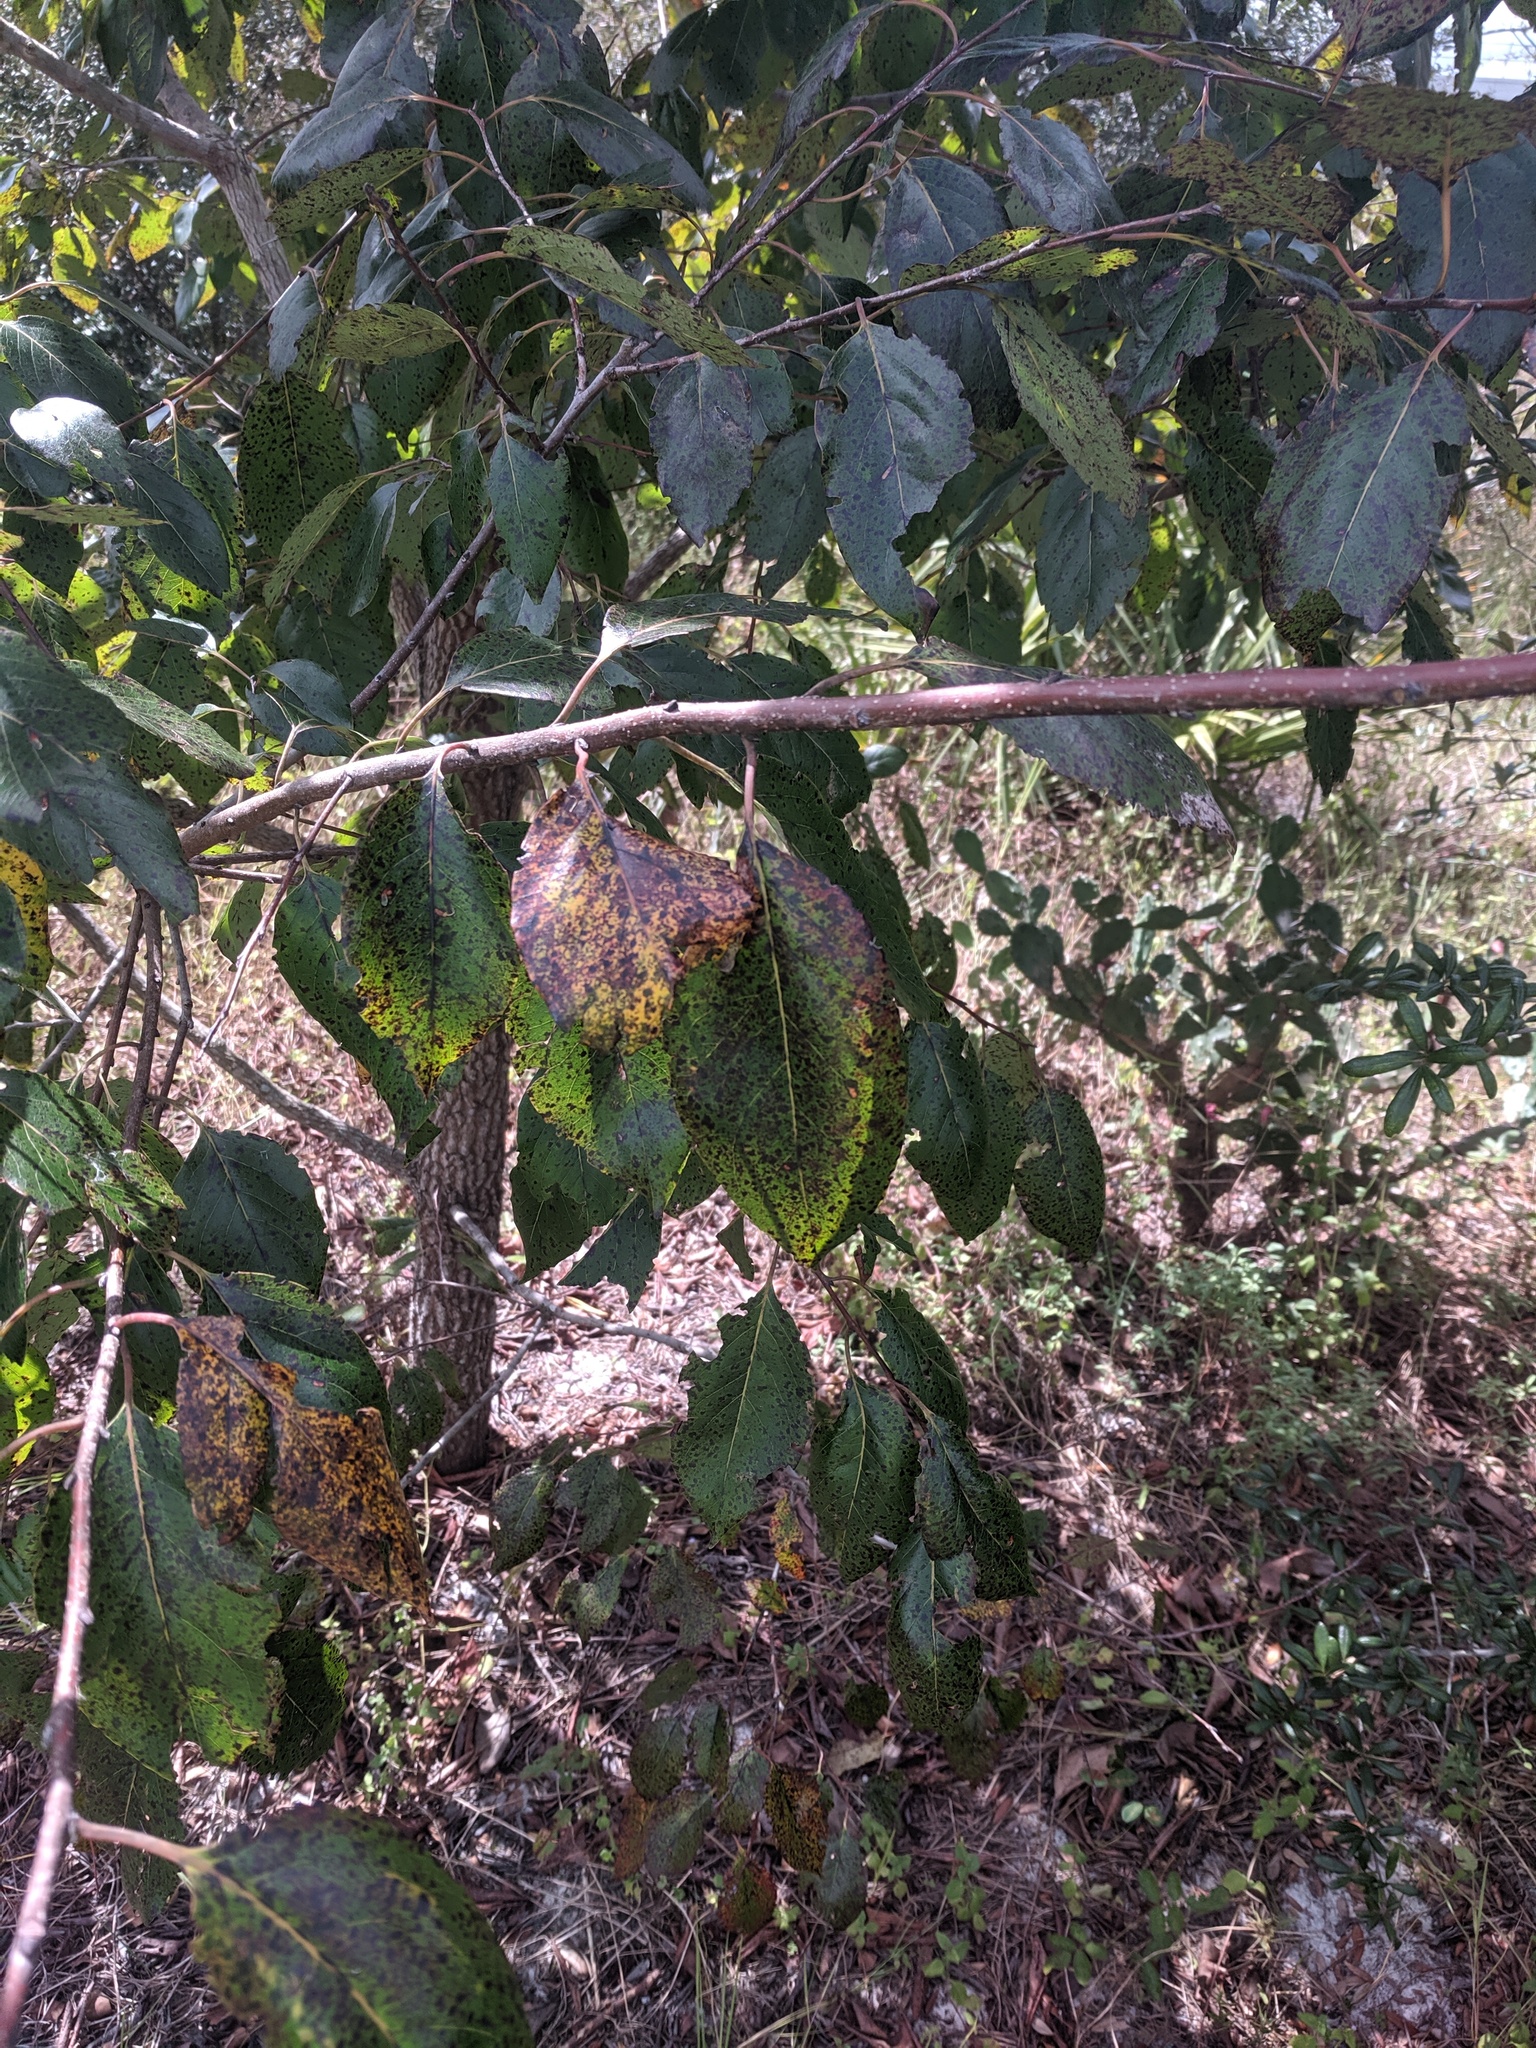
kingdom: Plantae
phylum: Tracheophyta
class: Magnoliopsida
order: Ericales
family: Ebenaceae
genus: Diospyros
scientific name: Diospyros virginiana
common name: Persimmon
